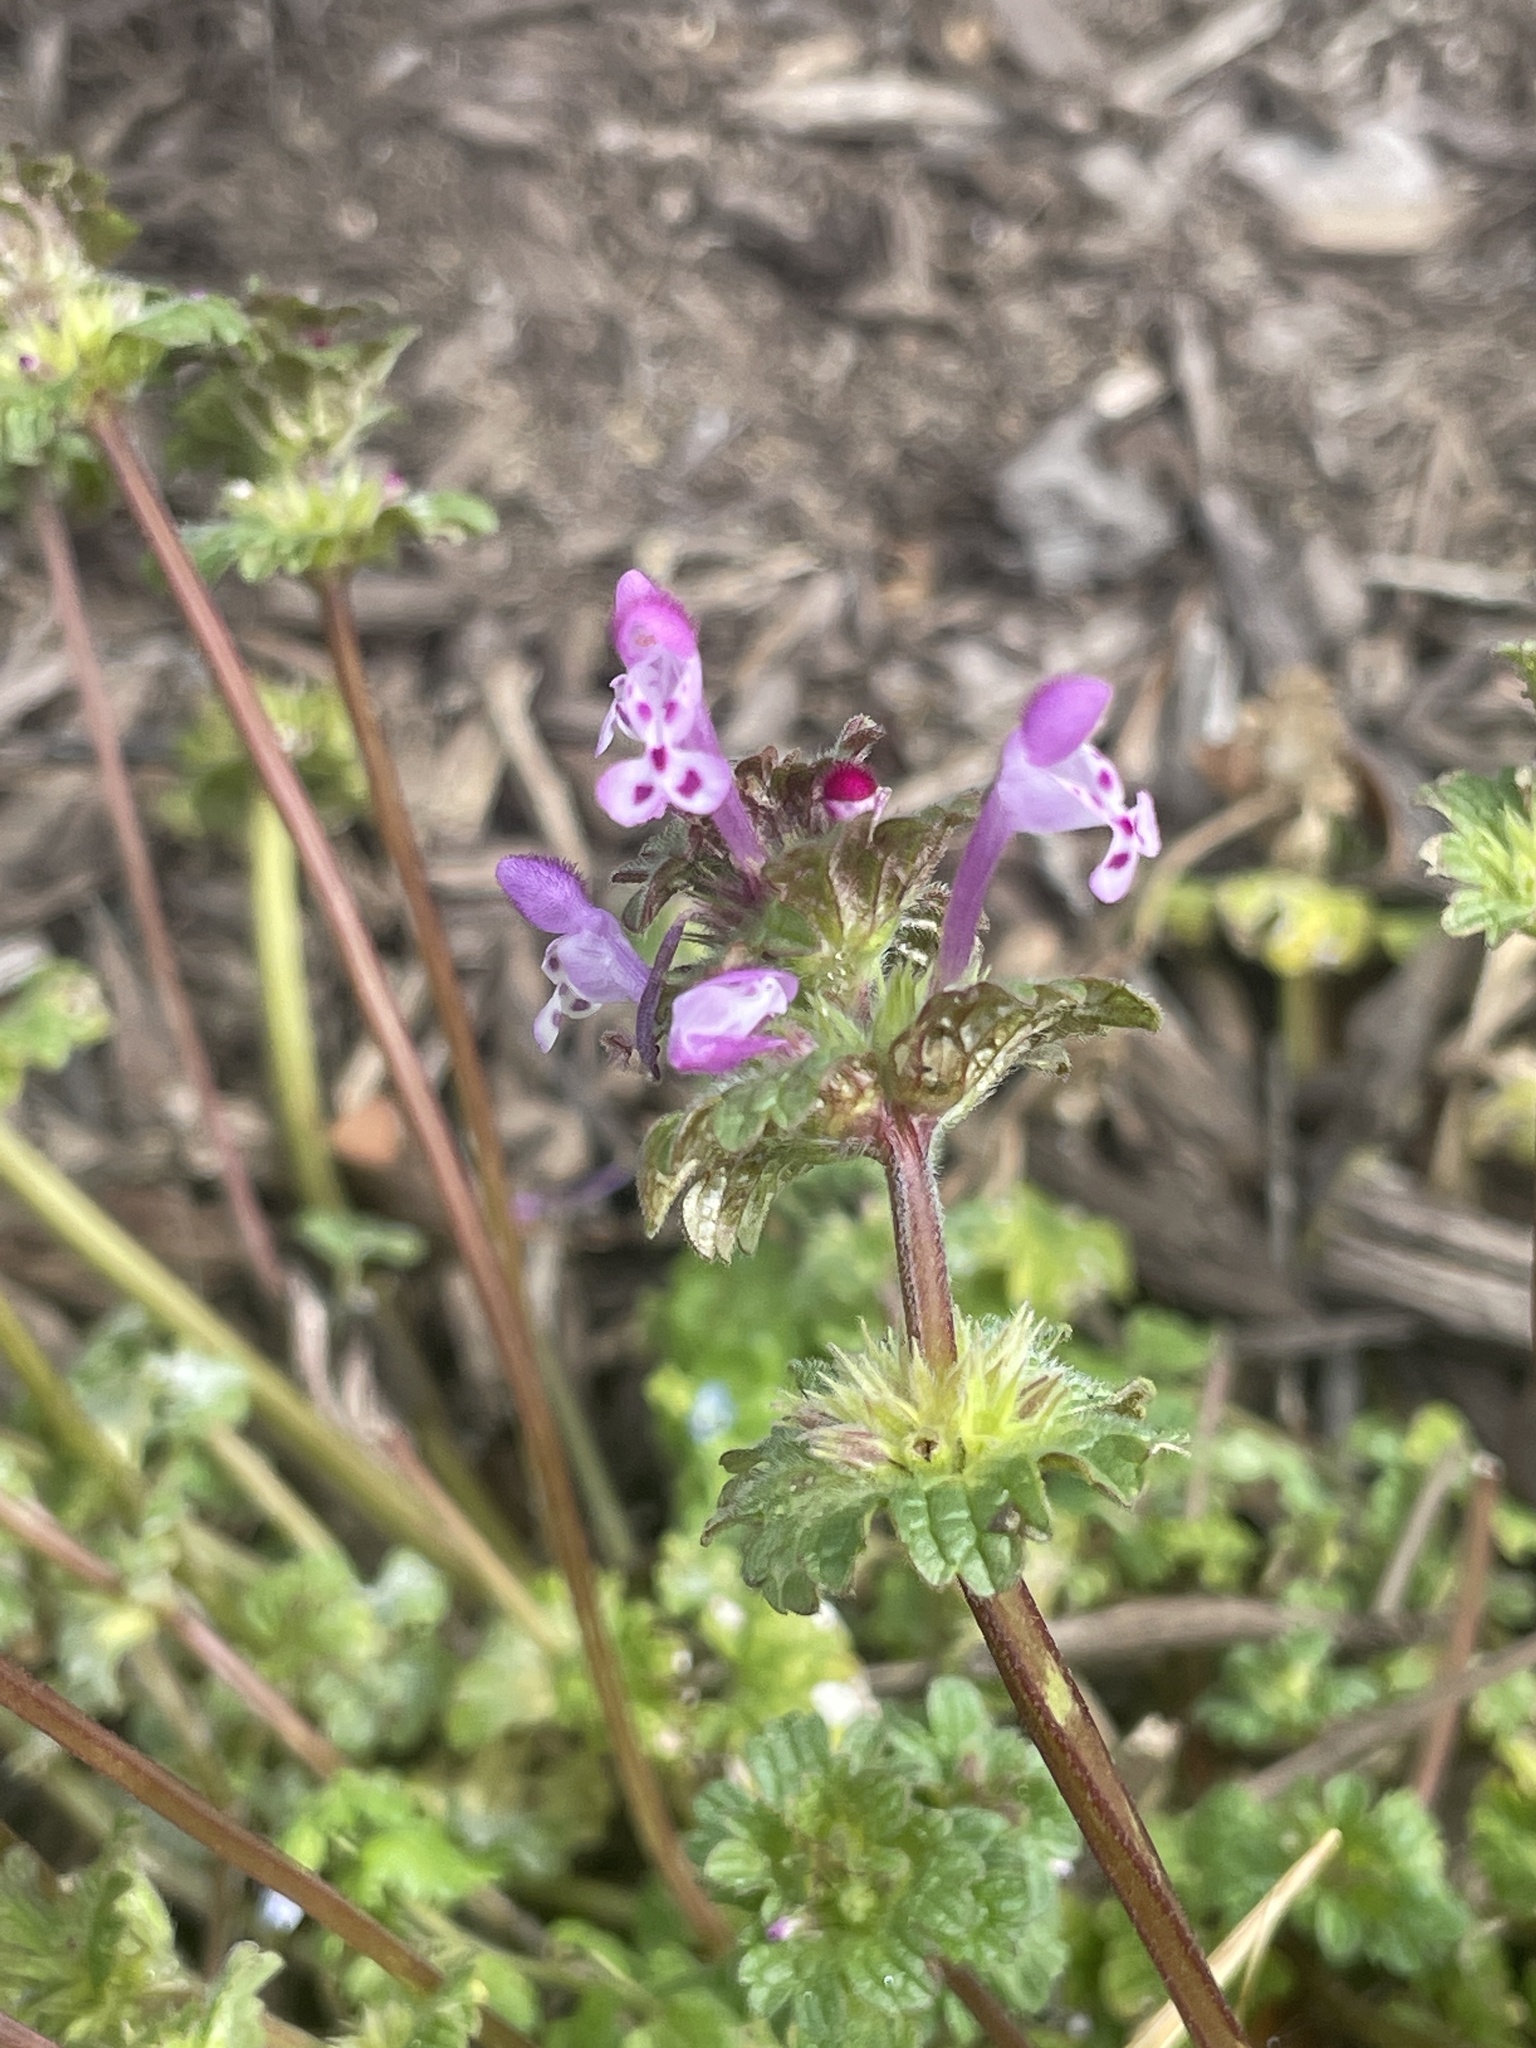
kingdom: Plantae
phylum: Tracheophyta
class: Magnoliopsida
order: Lamiales
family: Lamiaceae
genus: Lamium
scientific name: Lamium amplexicaule
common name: Henbit dead-nettle
